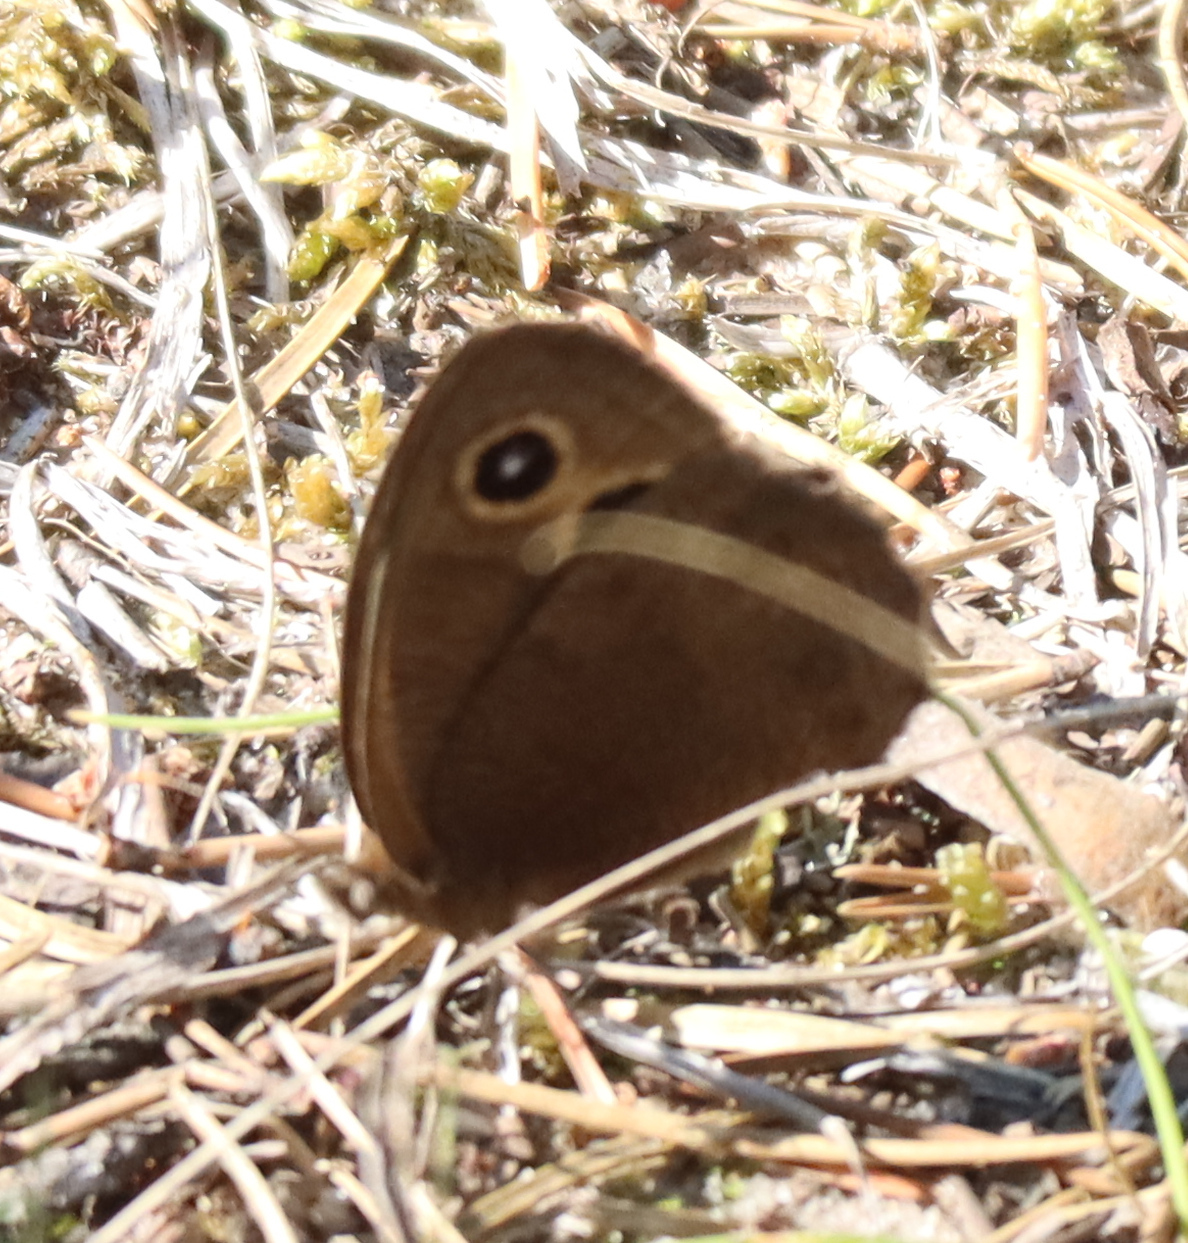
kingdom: Animalia
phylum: Arthropoda
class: Insecta
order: Lepidoptera
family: Nymphalidae
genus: Cercyonis
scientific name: Cercyonis pegala
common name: Common wood-nymph
